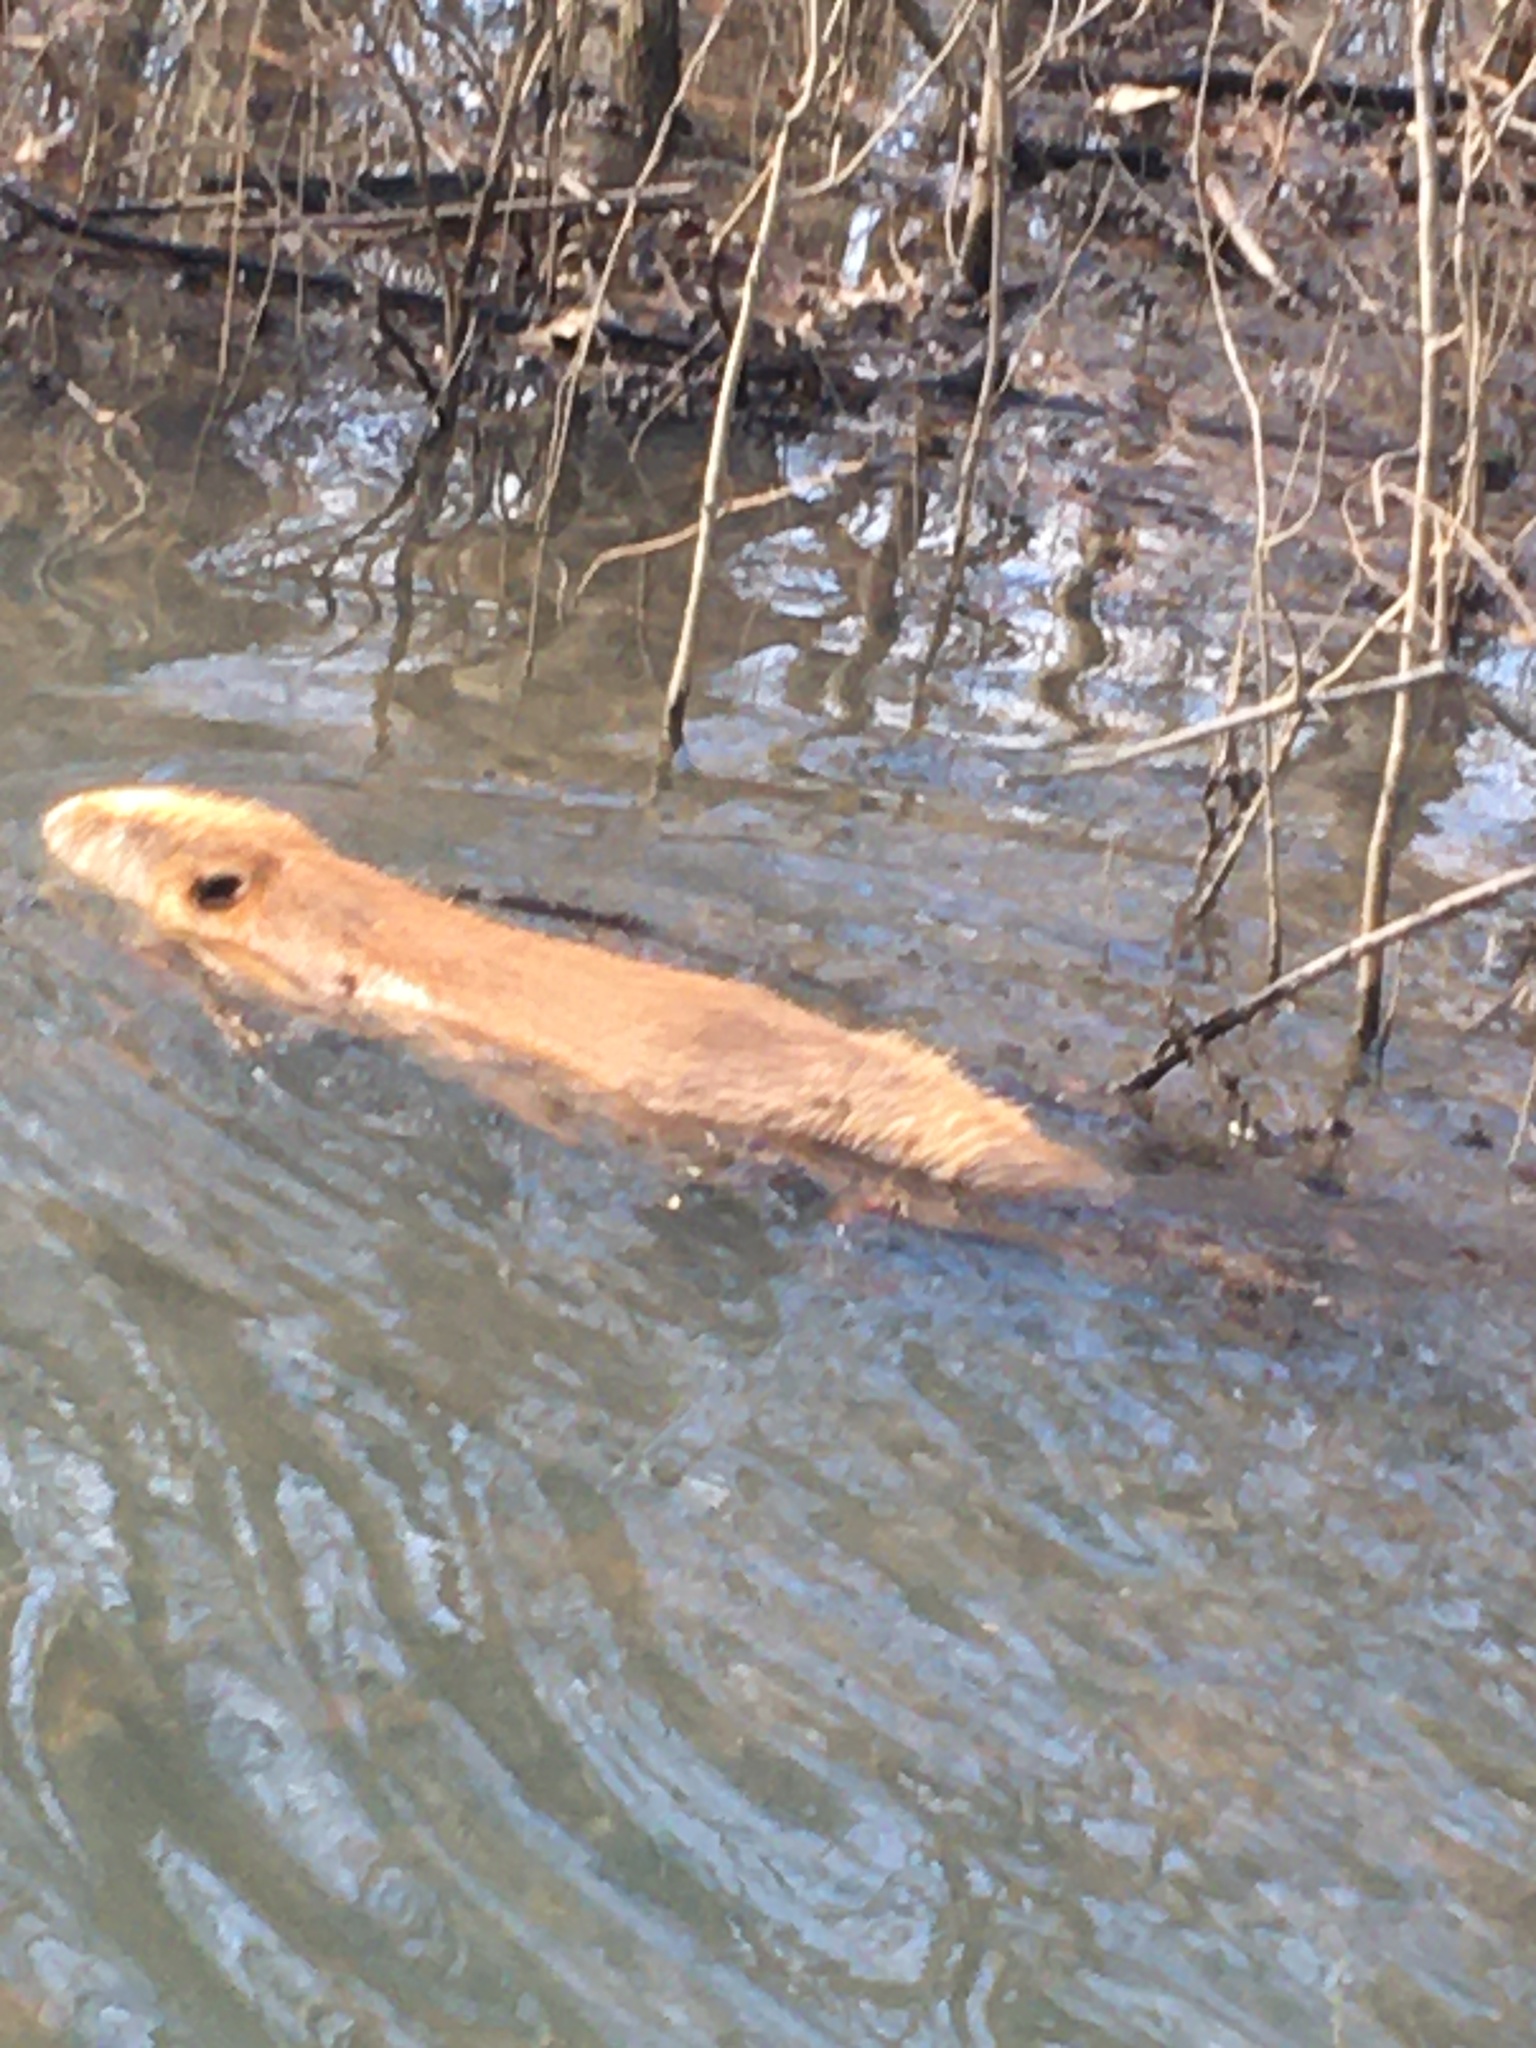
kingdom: Animalia
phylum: Chordata
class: Mammalia
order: Rodentia
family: Castoridae
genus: Castor
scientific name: Castor canadensis
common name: American beaver
